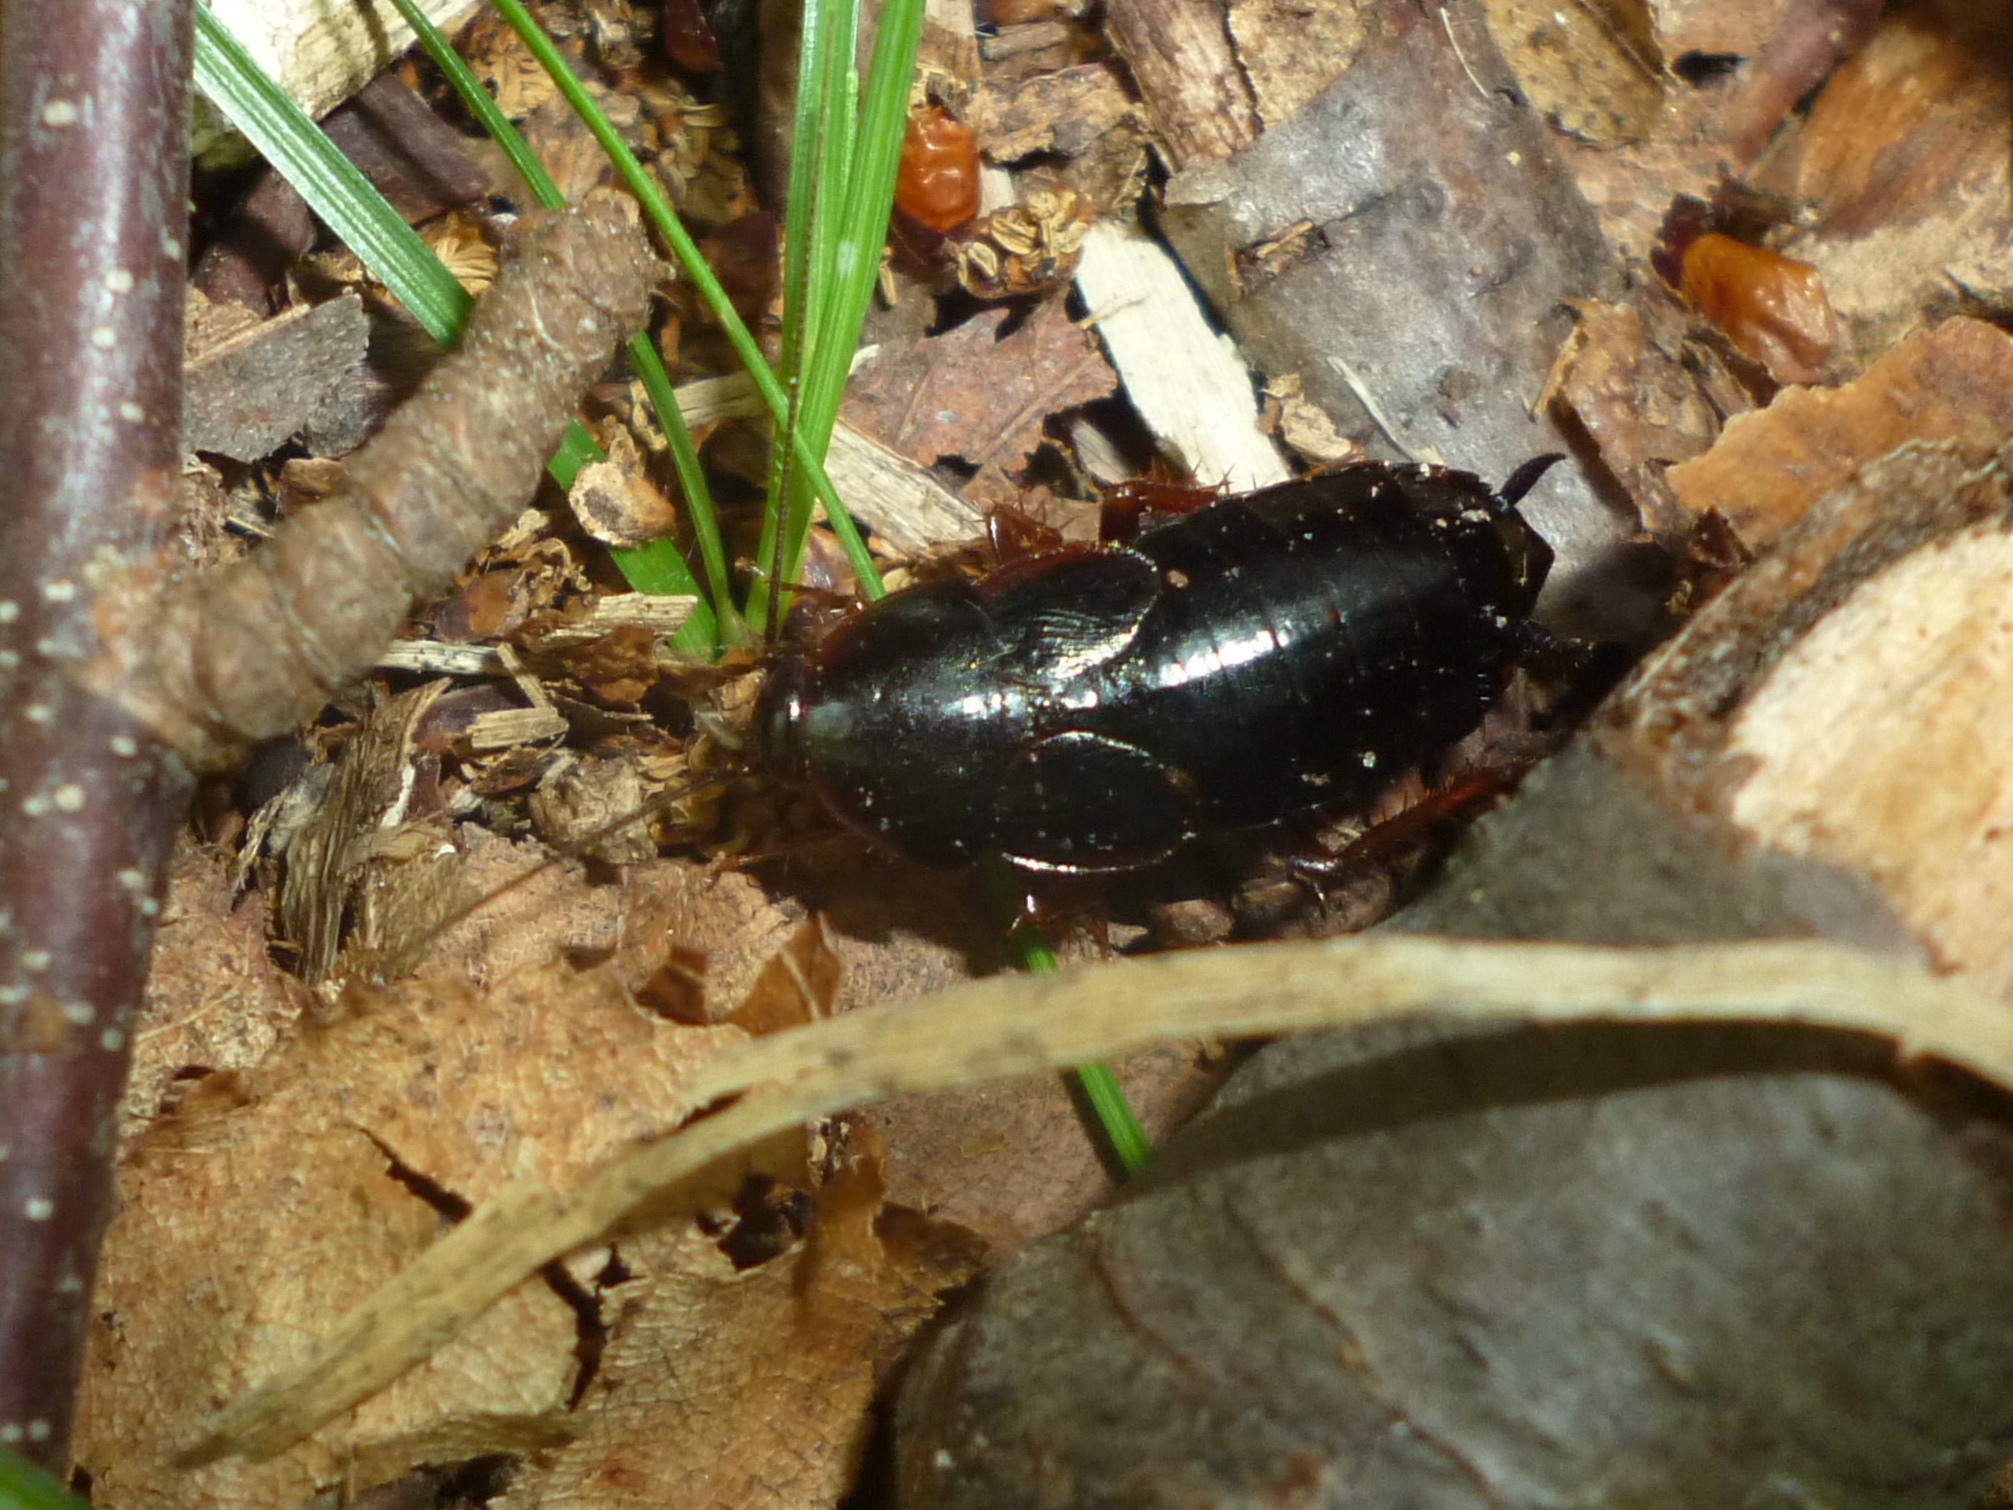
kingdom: Animalia
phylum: Arthropoda
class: Insecta
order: Blattodea
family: Ectobiidae
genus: Parcoblatta
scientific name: Parcoblatta uhleriana
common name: Uhler's wood cockroach
